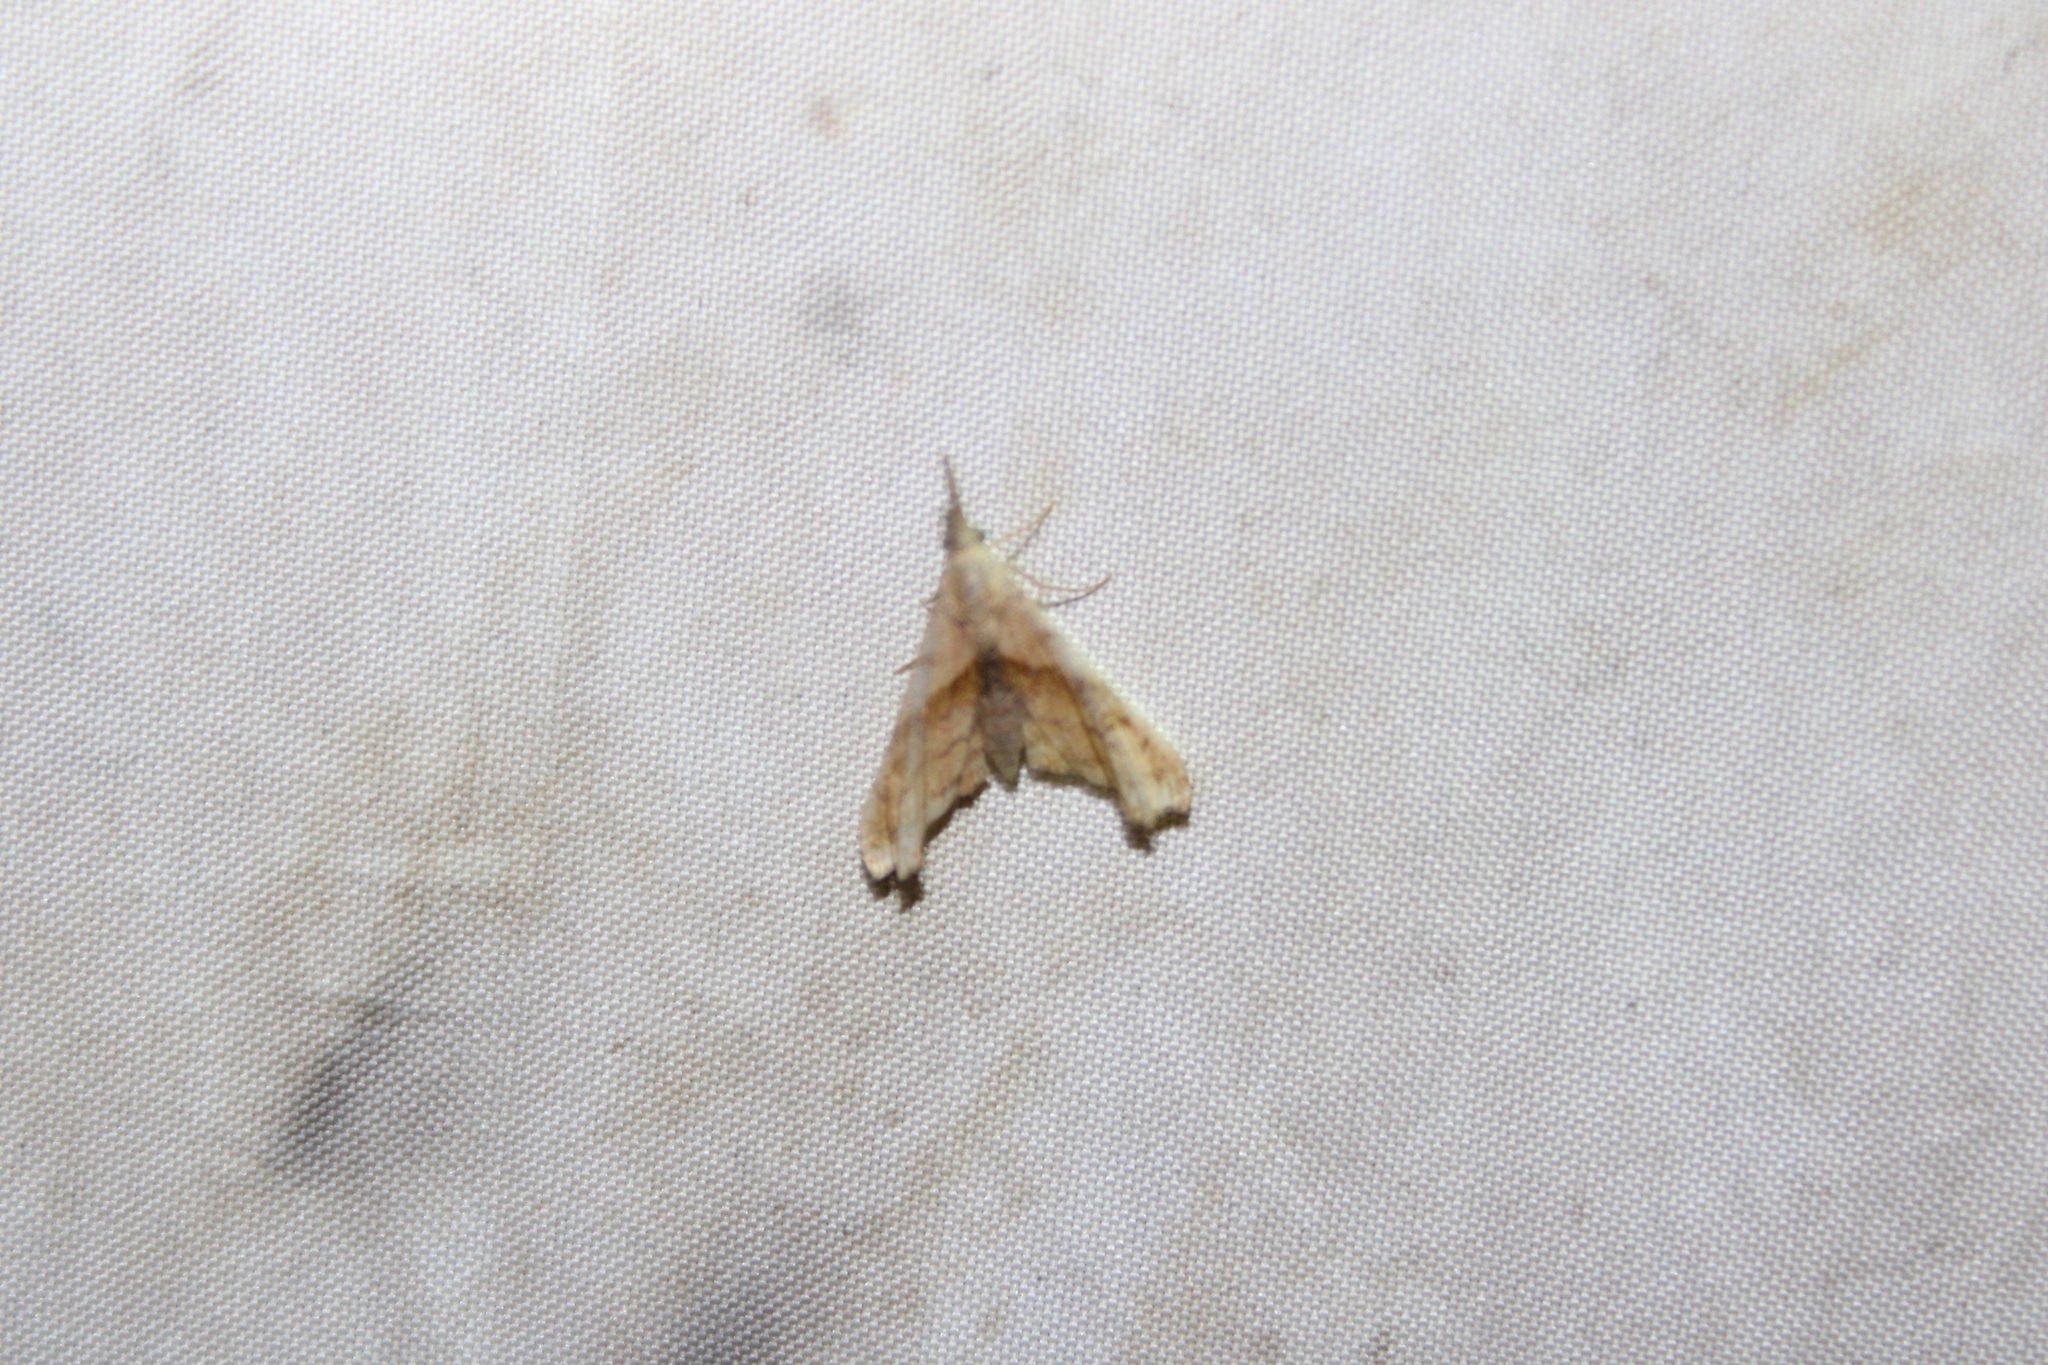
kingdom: Animalia
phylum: Arthropoda
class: Insecta
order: Lepidoptera
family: Erebidae
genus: Palthis
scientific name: Palthis angulalis
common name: Dark-spotted palthis moth
